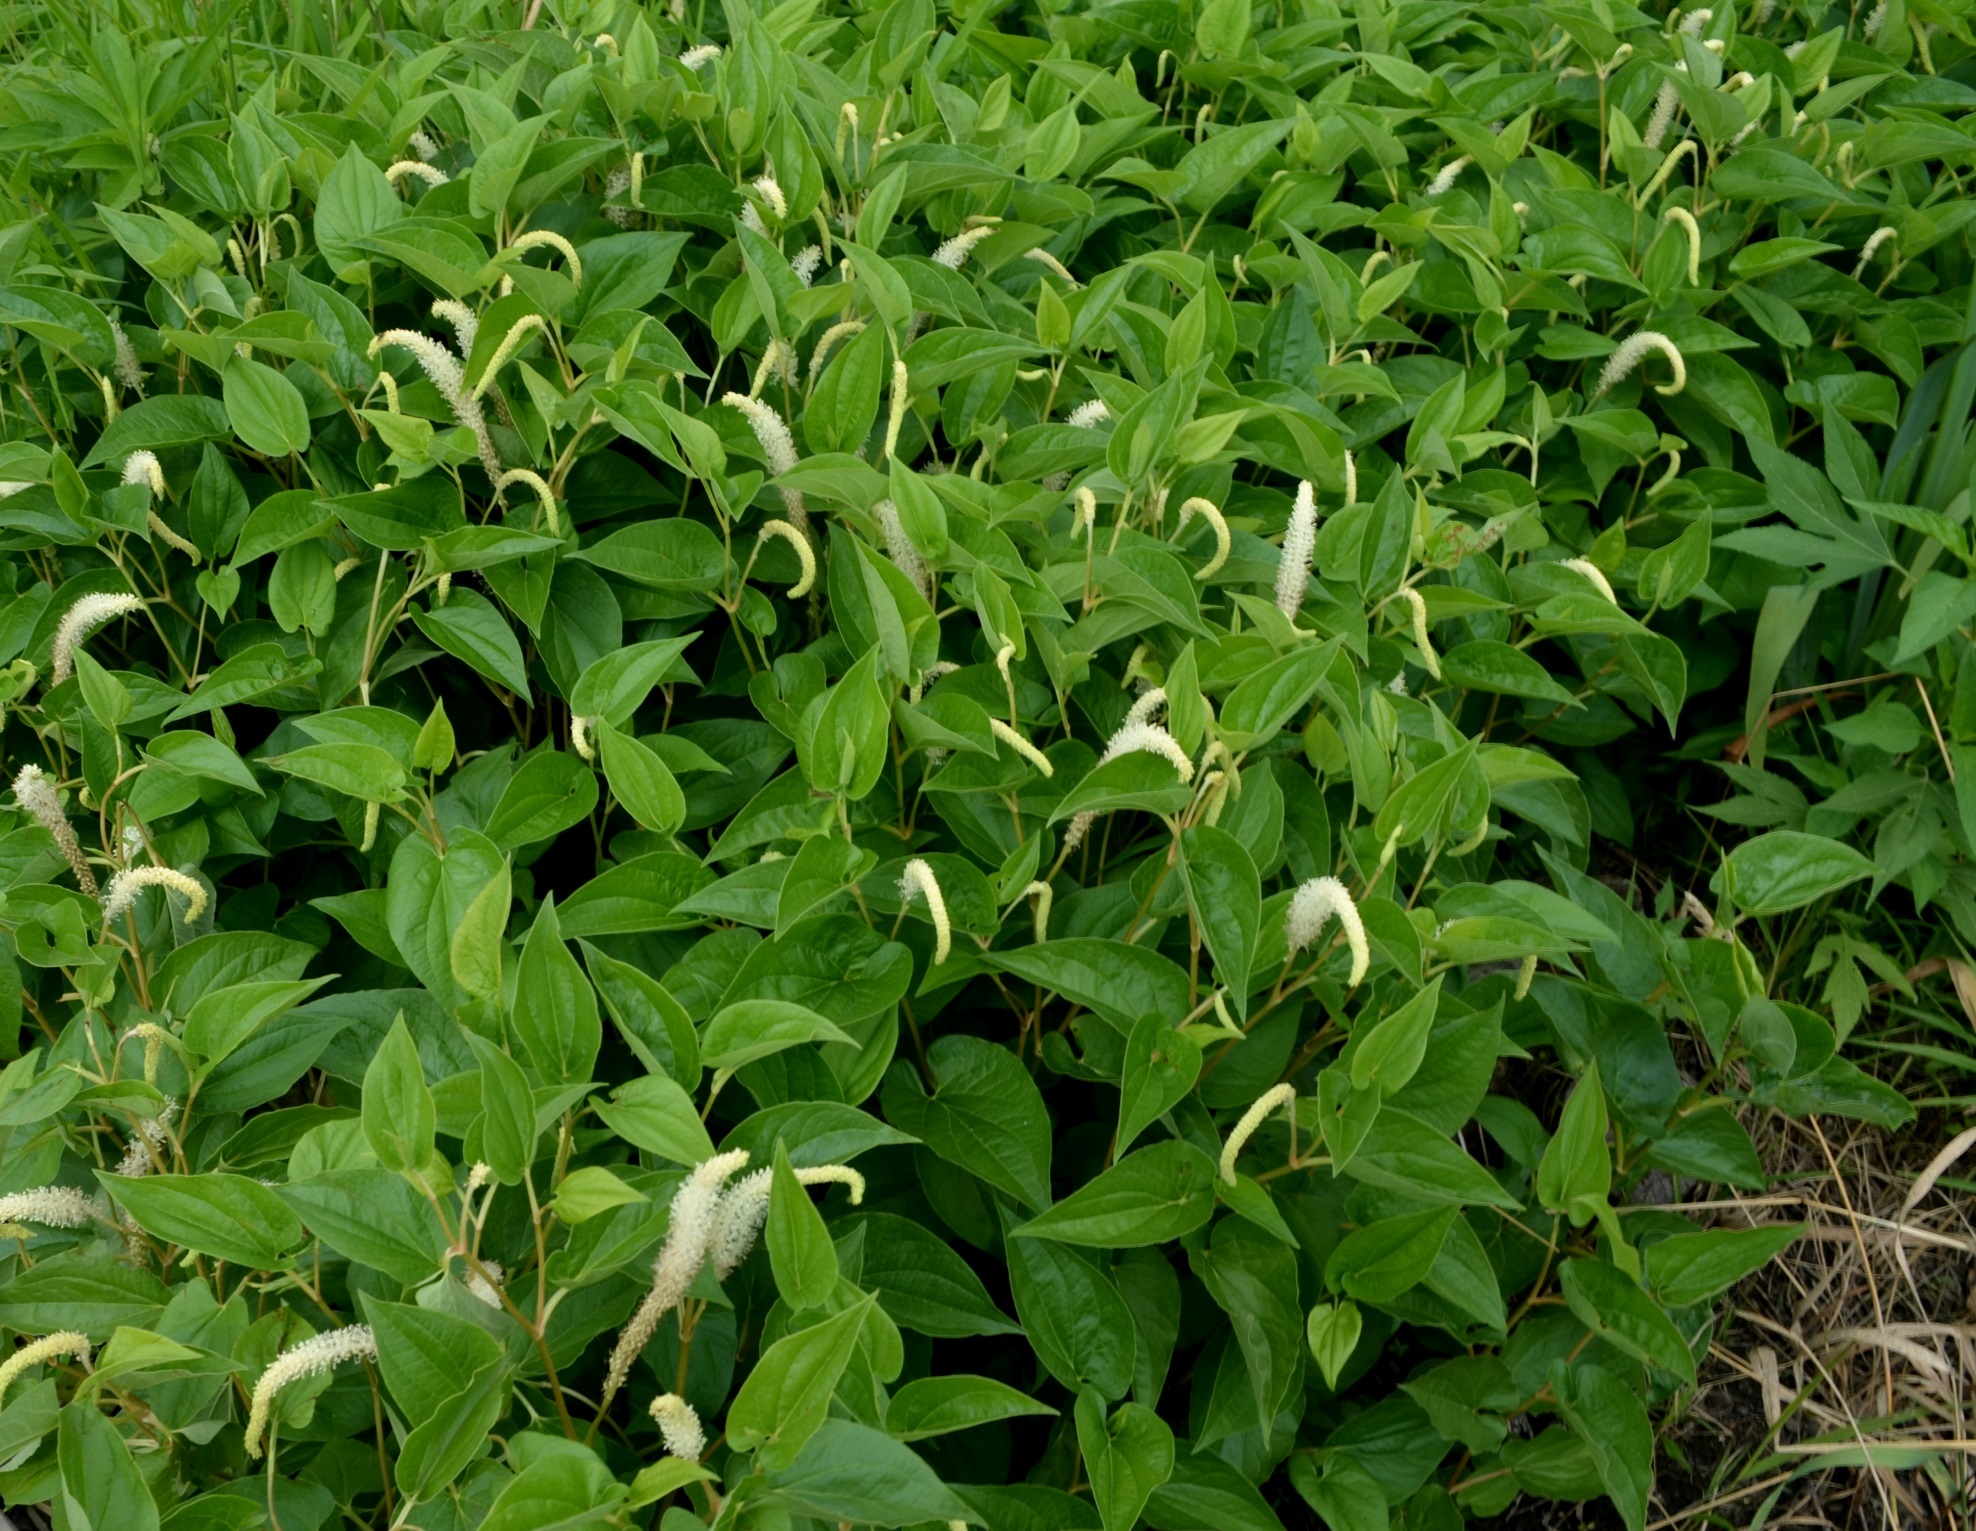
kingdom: Plantae
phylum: Tracheophyta
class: Magnoliopsida
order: Piperales
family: Saururaceae
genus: Saururus
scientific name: Saururus cernuus
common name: Lizard's-tail
